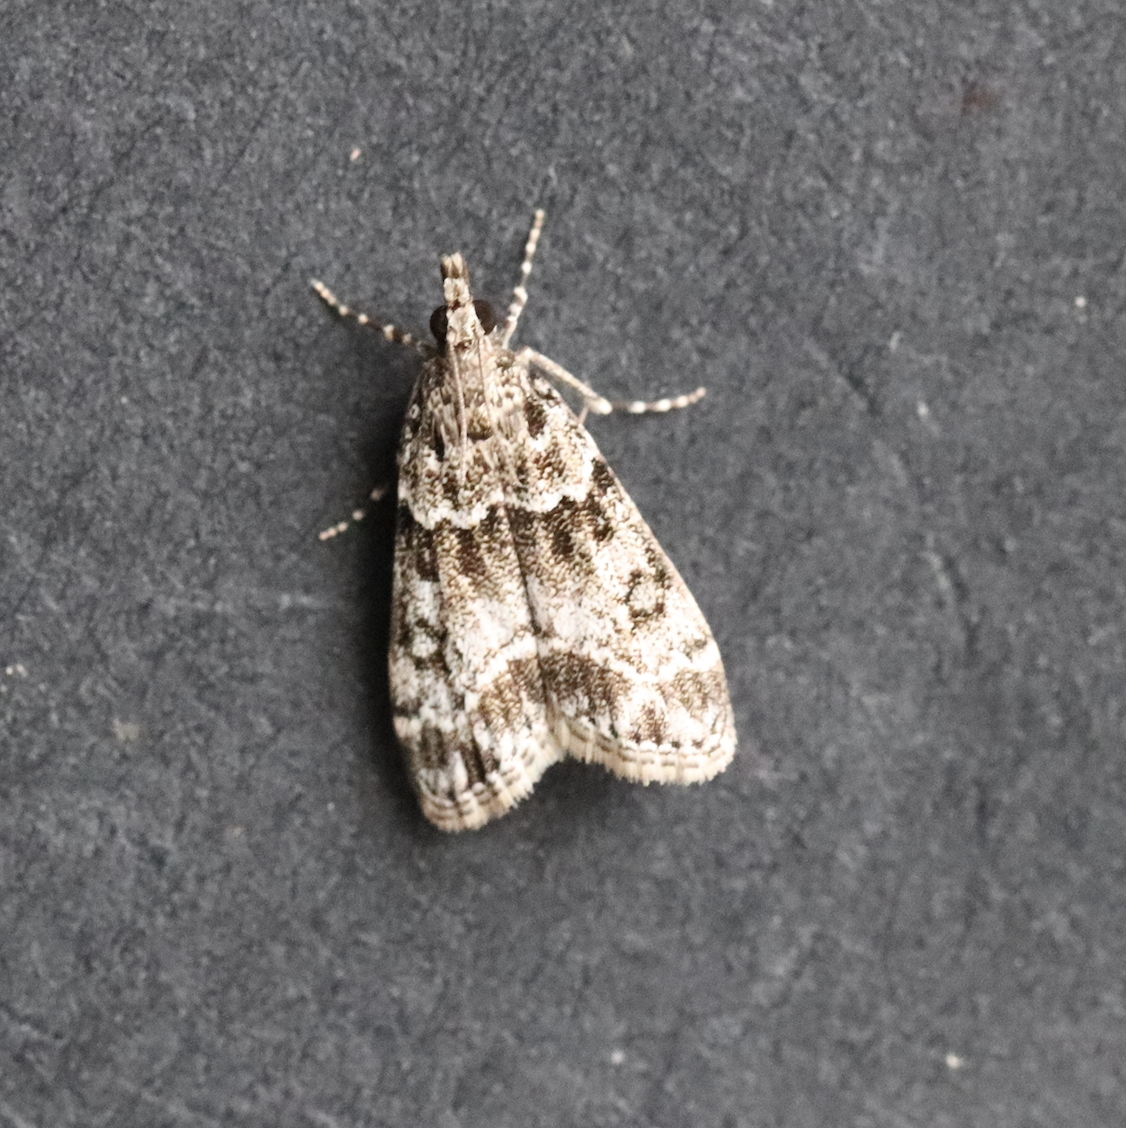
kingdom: Animalia
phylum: Arthropoda
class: Insecta
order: Lepidoptera
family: Crambidae
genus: Eudonia
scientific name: Eudonia lacustrata
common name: Little grey
